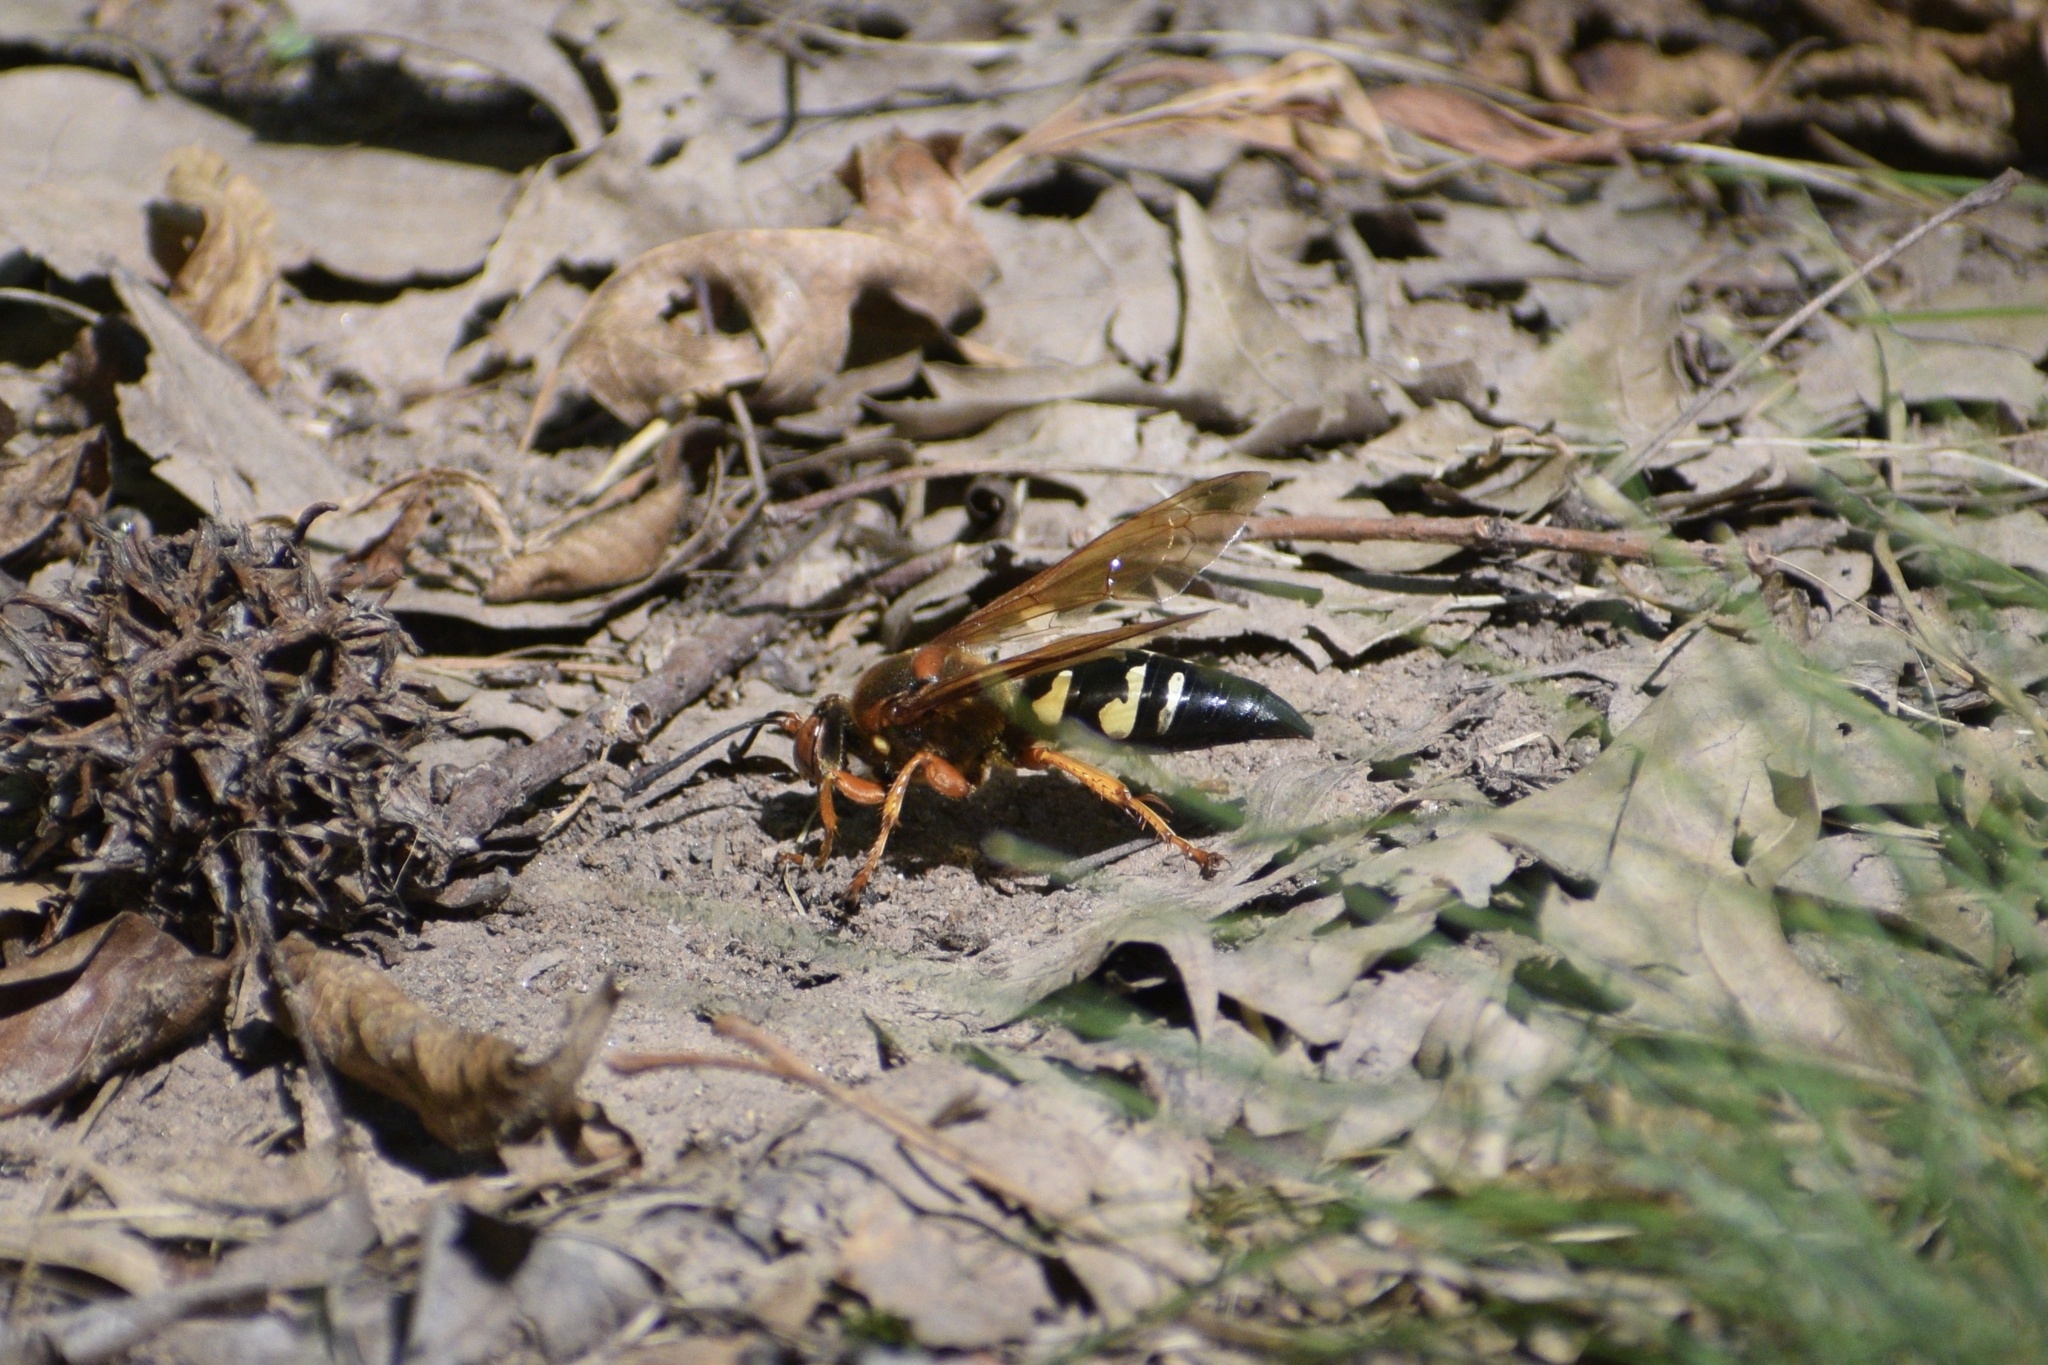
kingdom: Animalia
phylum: Arthropoda
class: Insecta
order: Hymenoptera
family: Crabronidae
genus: Sphecius
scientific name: Sphecius speciosus
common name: Cicada killer
